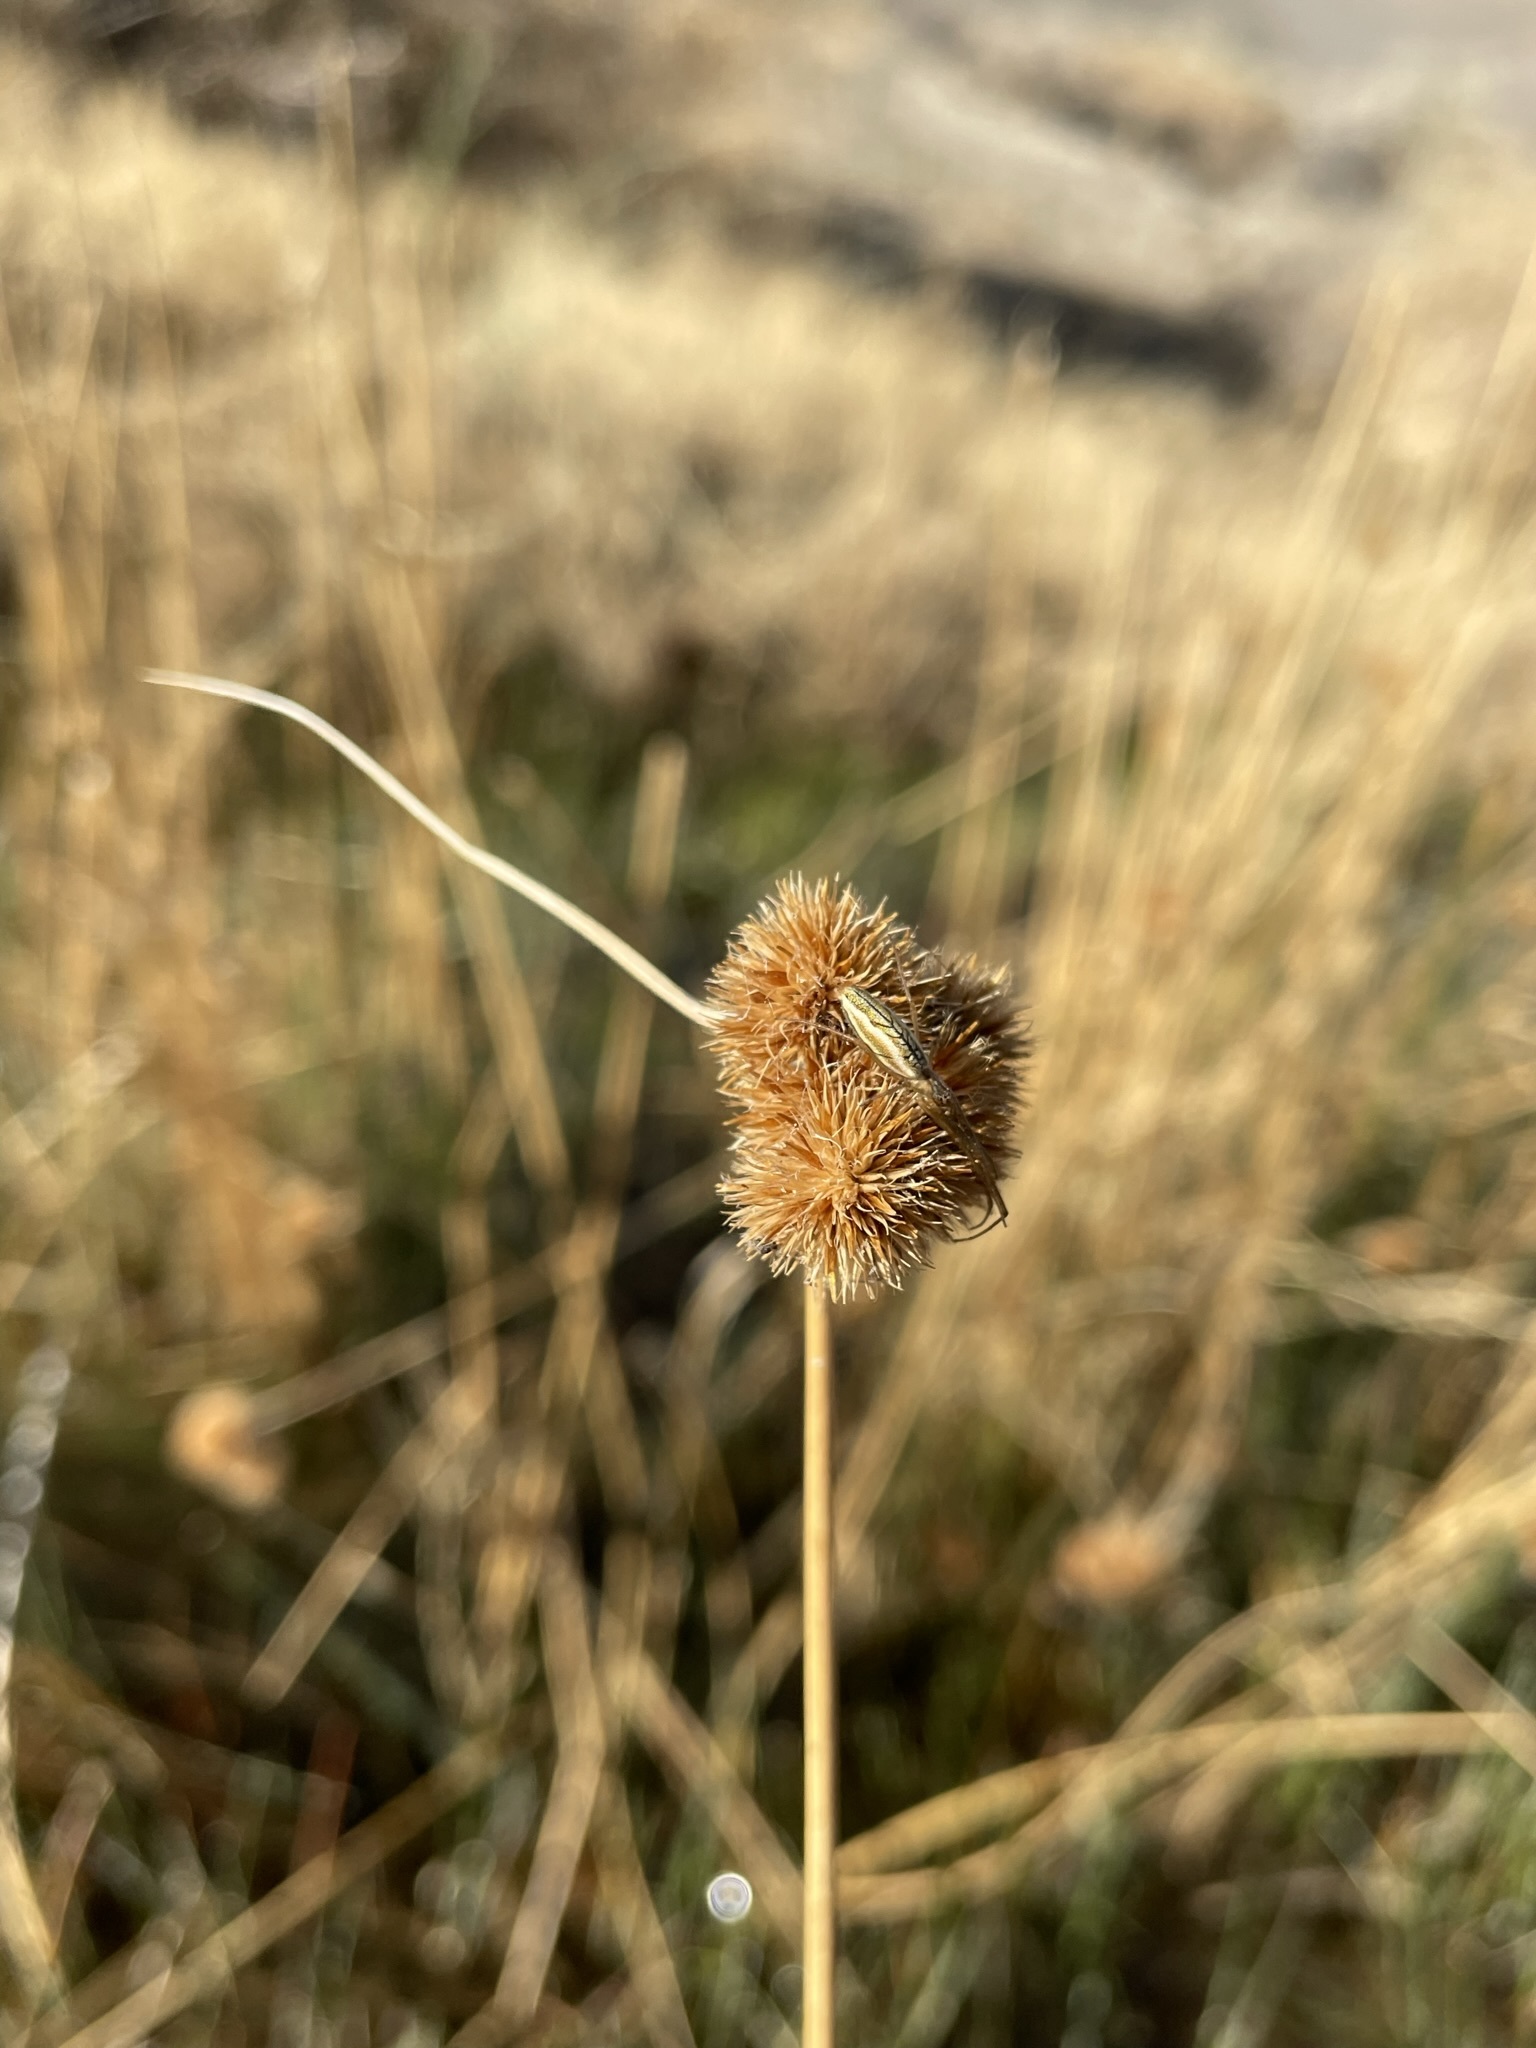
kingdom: Plantae
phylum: Tracheophyta
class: Liliopsida
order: Poales
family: Juncaceae
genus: Juncus
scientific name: Juncus torreyi
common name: Torrey's rush
